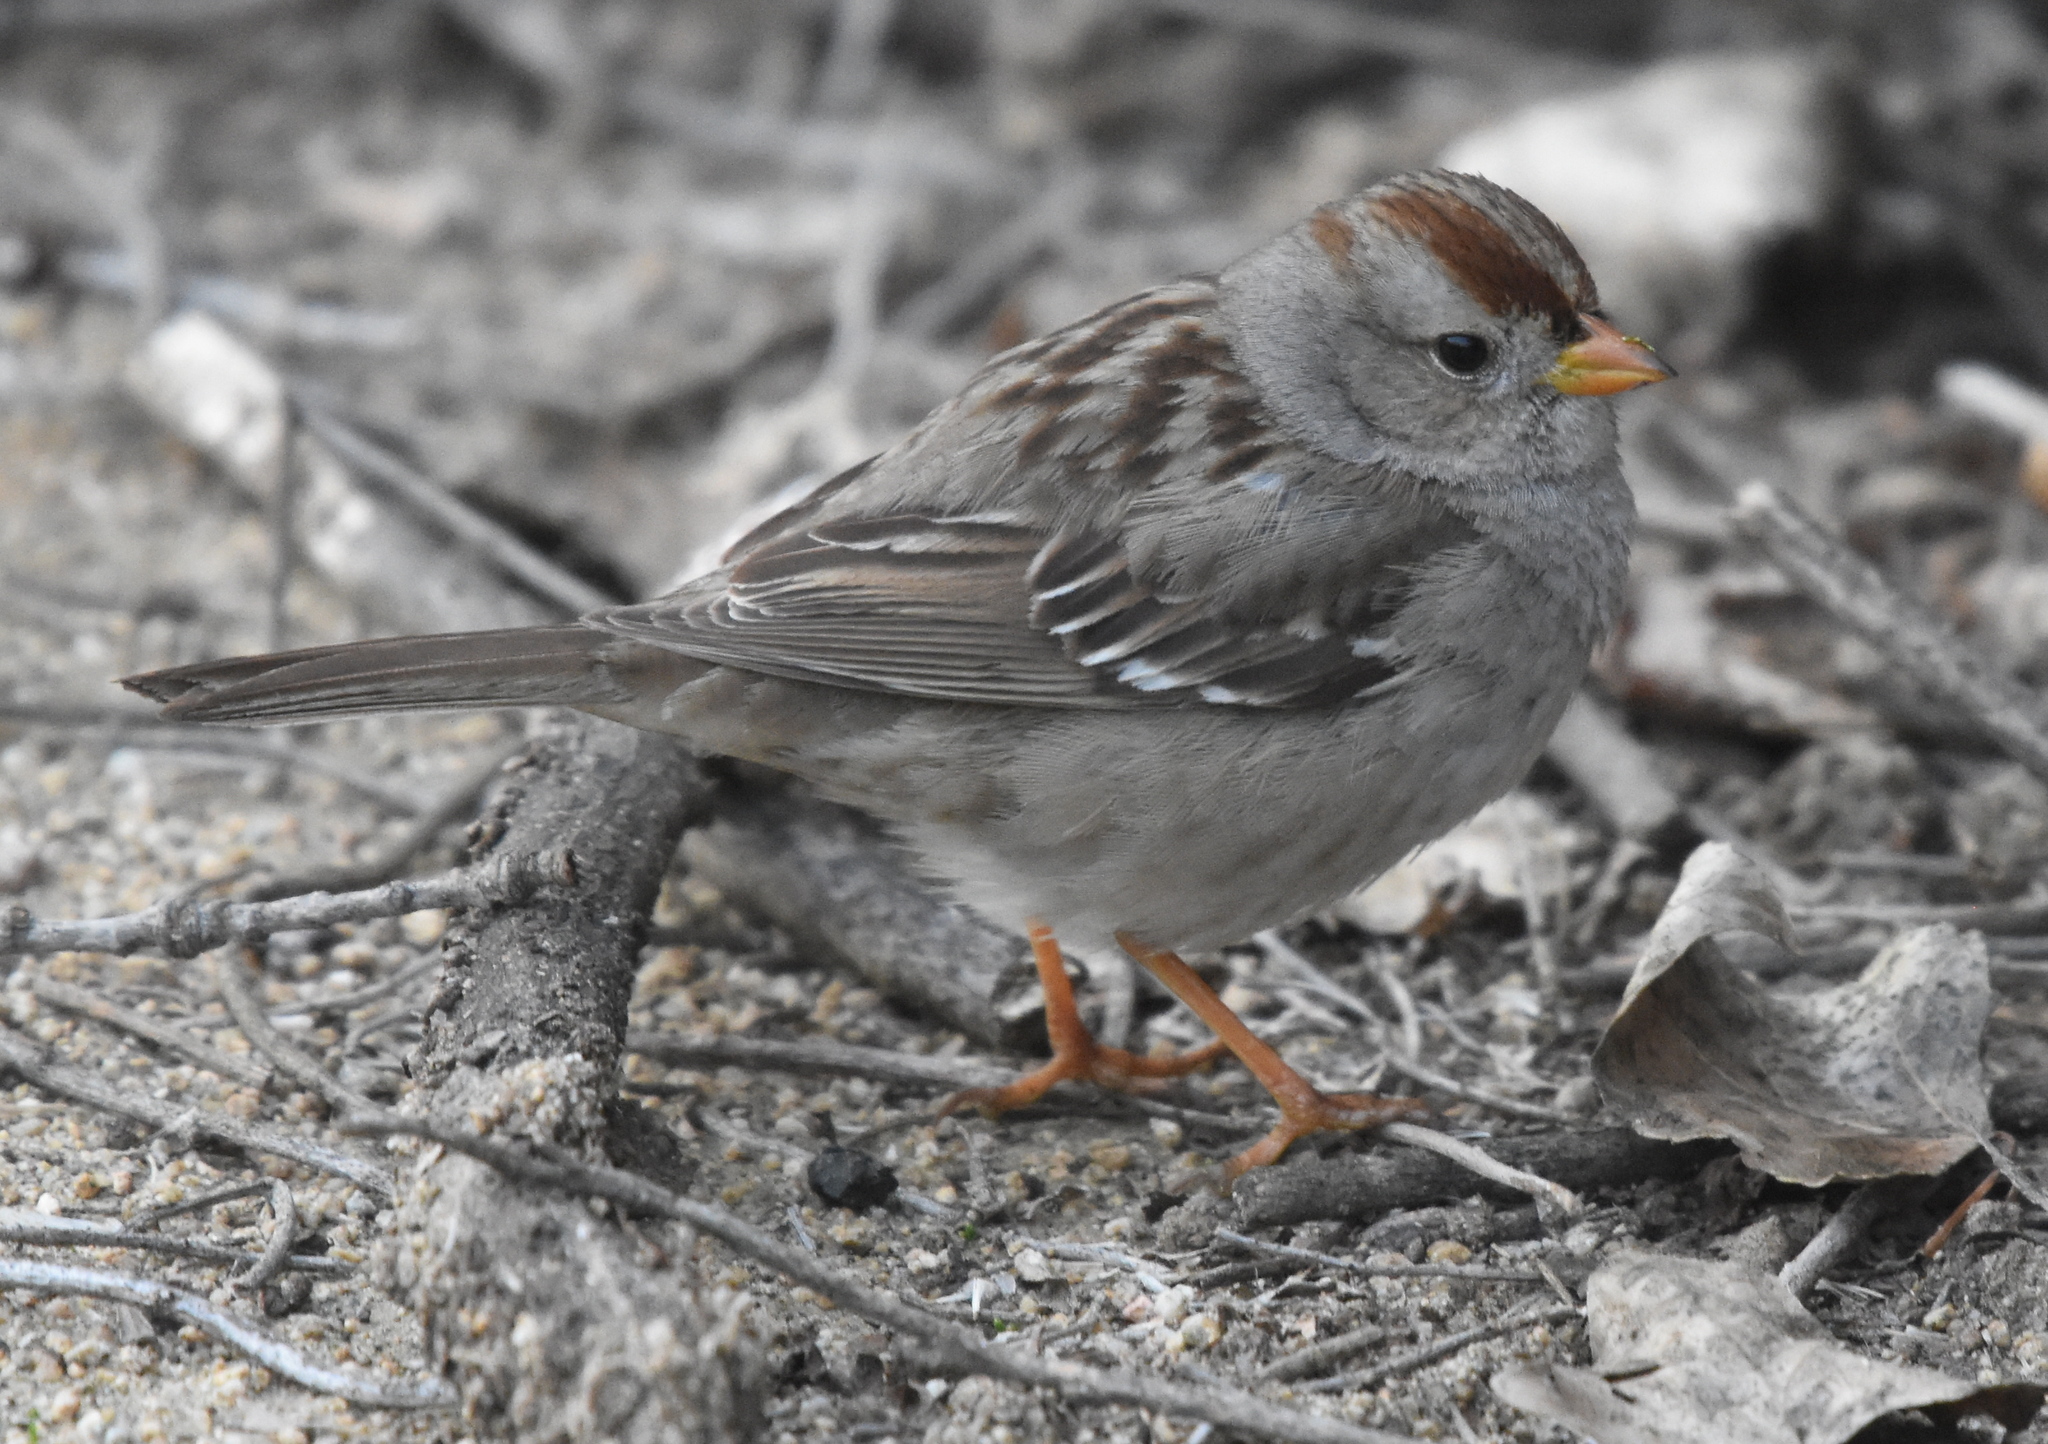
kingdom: Animalia
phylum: Chordata
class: Aves
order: Passeriformes
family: Passerellidae
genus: Zonotrichia
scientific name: Zonotrichia leucophrys
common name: White-crowned sparrow
